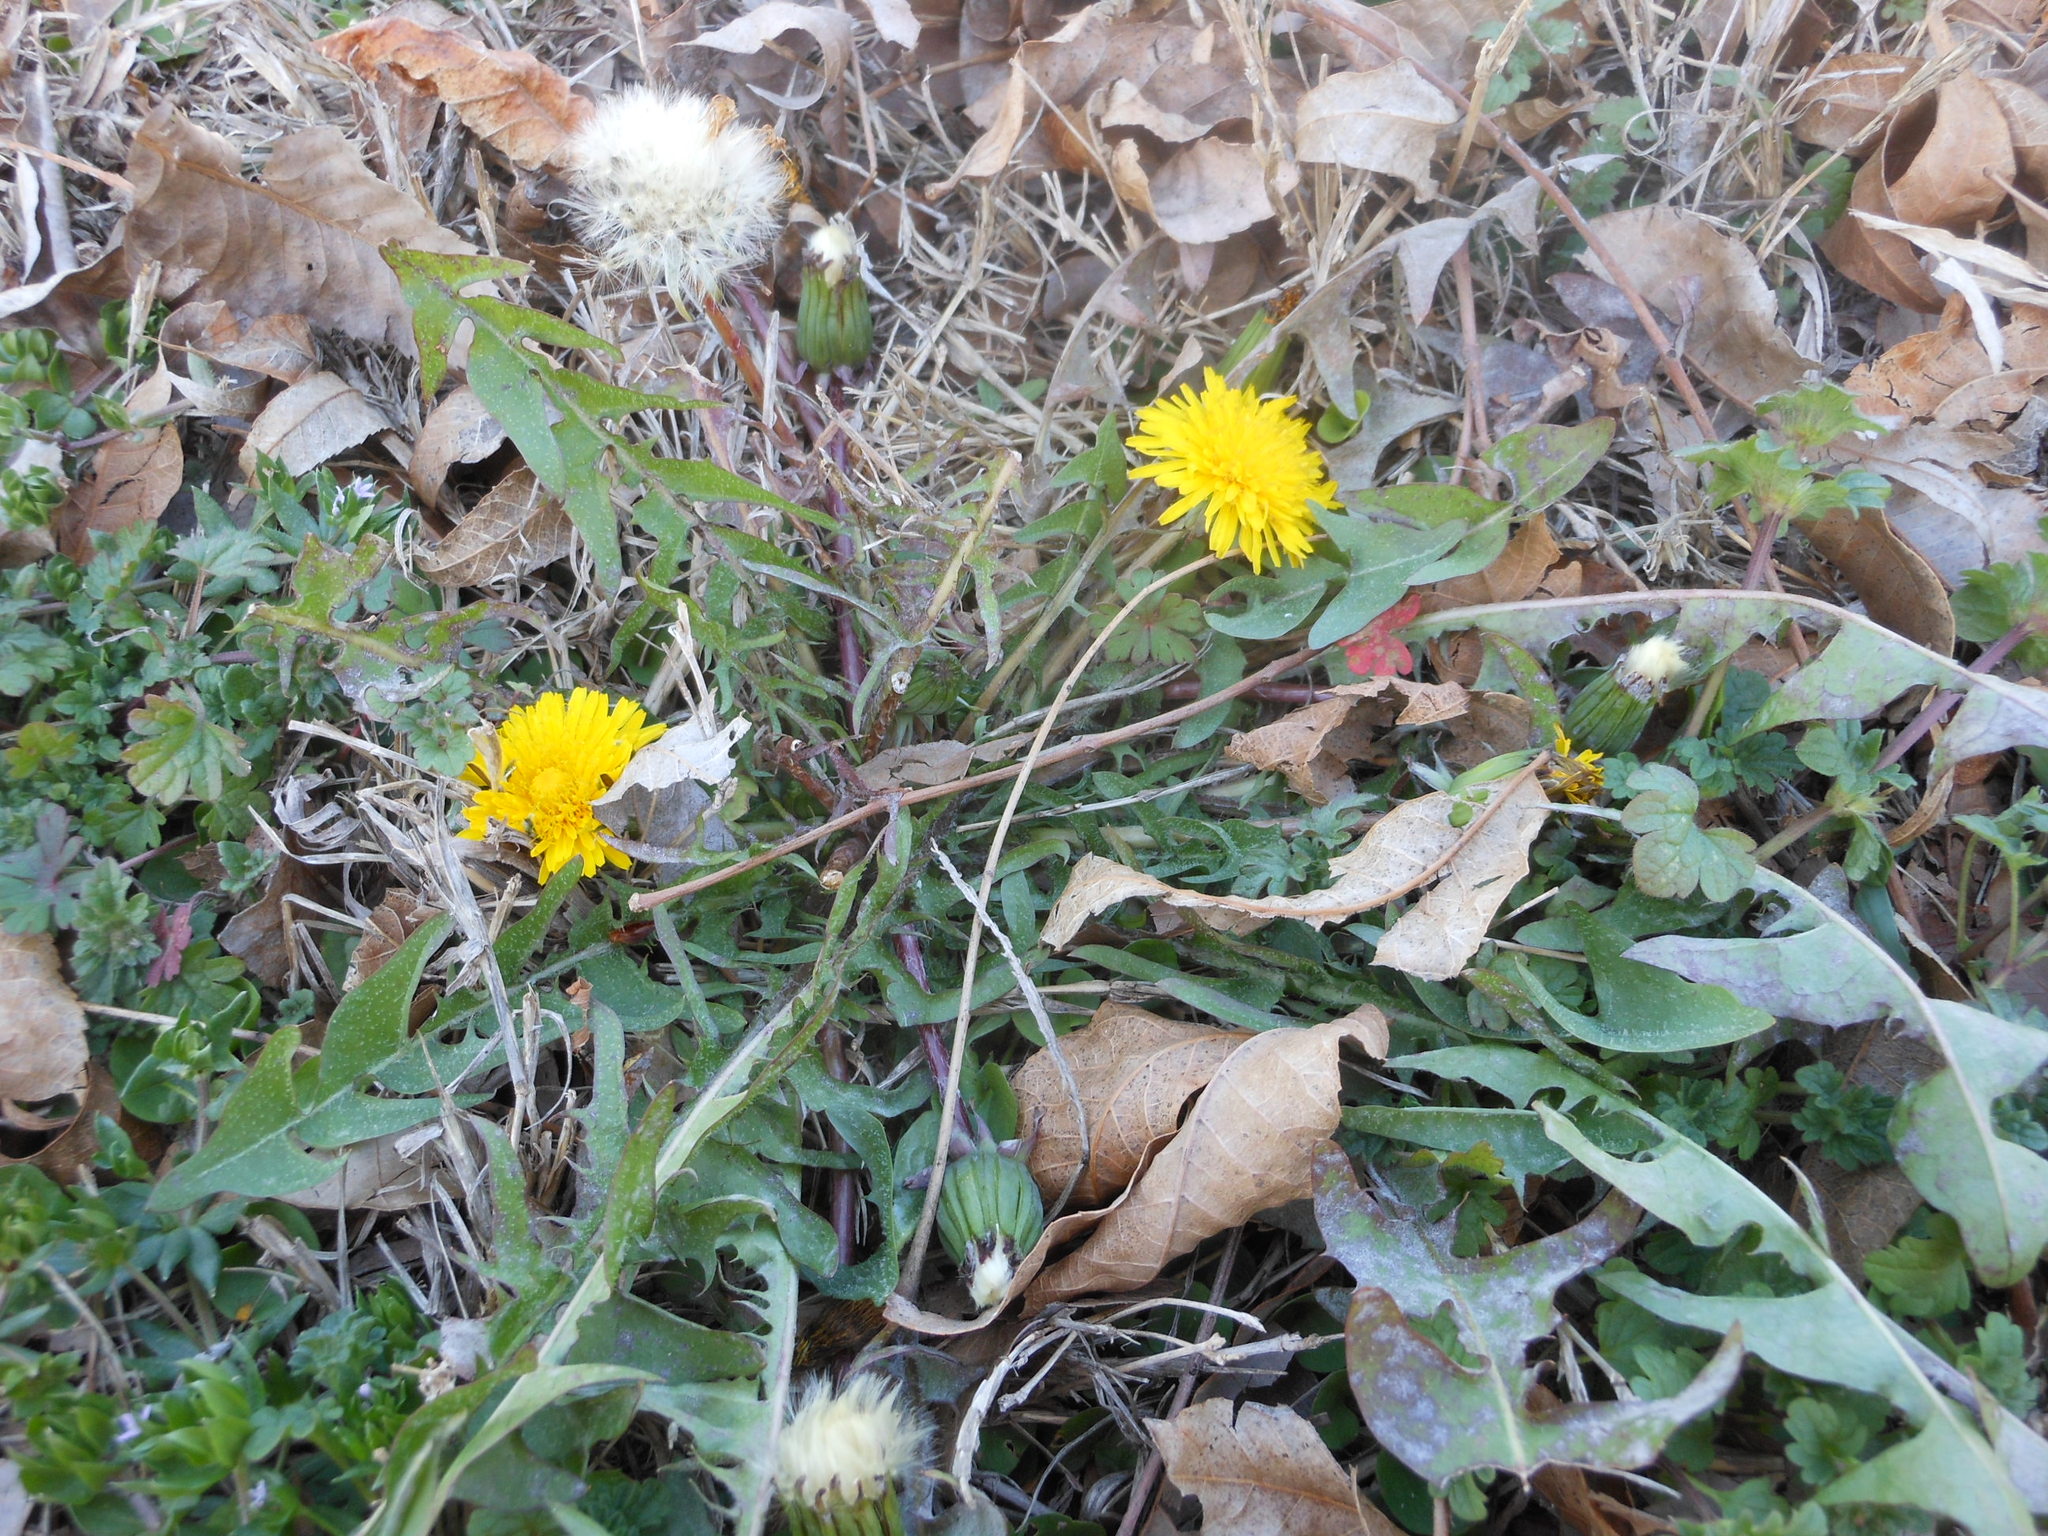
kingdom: Plantae
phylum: Tracheophyta
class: Magnoliopsida
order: Asterales
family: Asteraceae
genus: Taraxacum
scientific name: Taraxacum officinale
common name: Common dandelion
